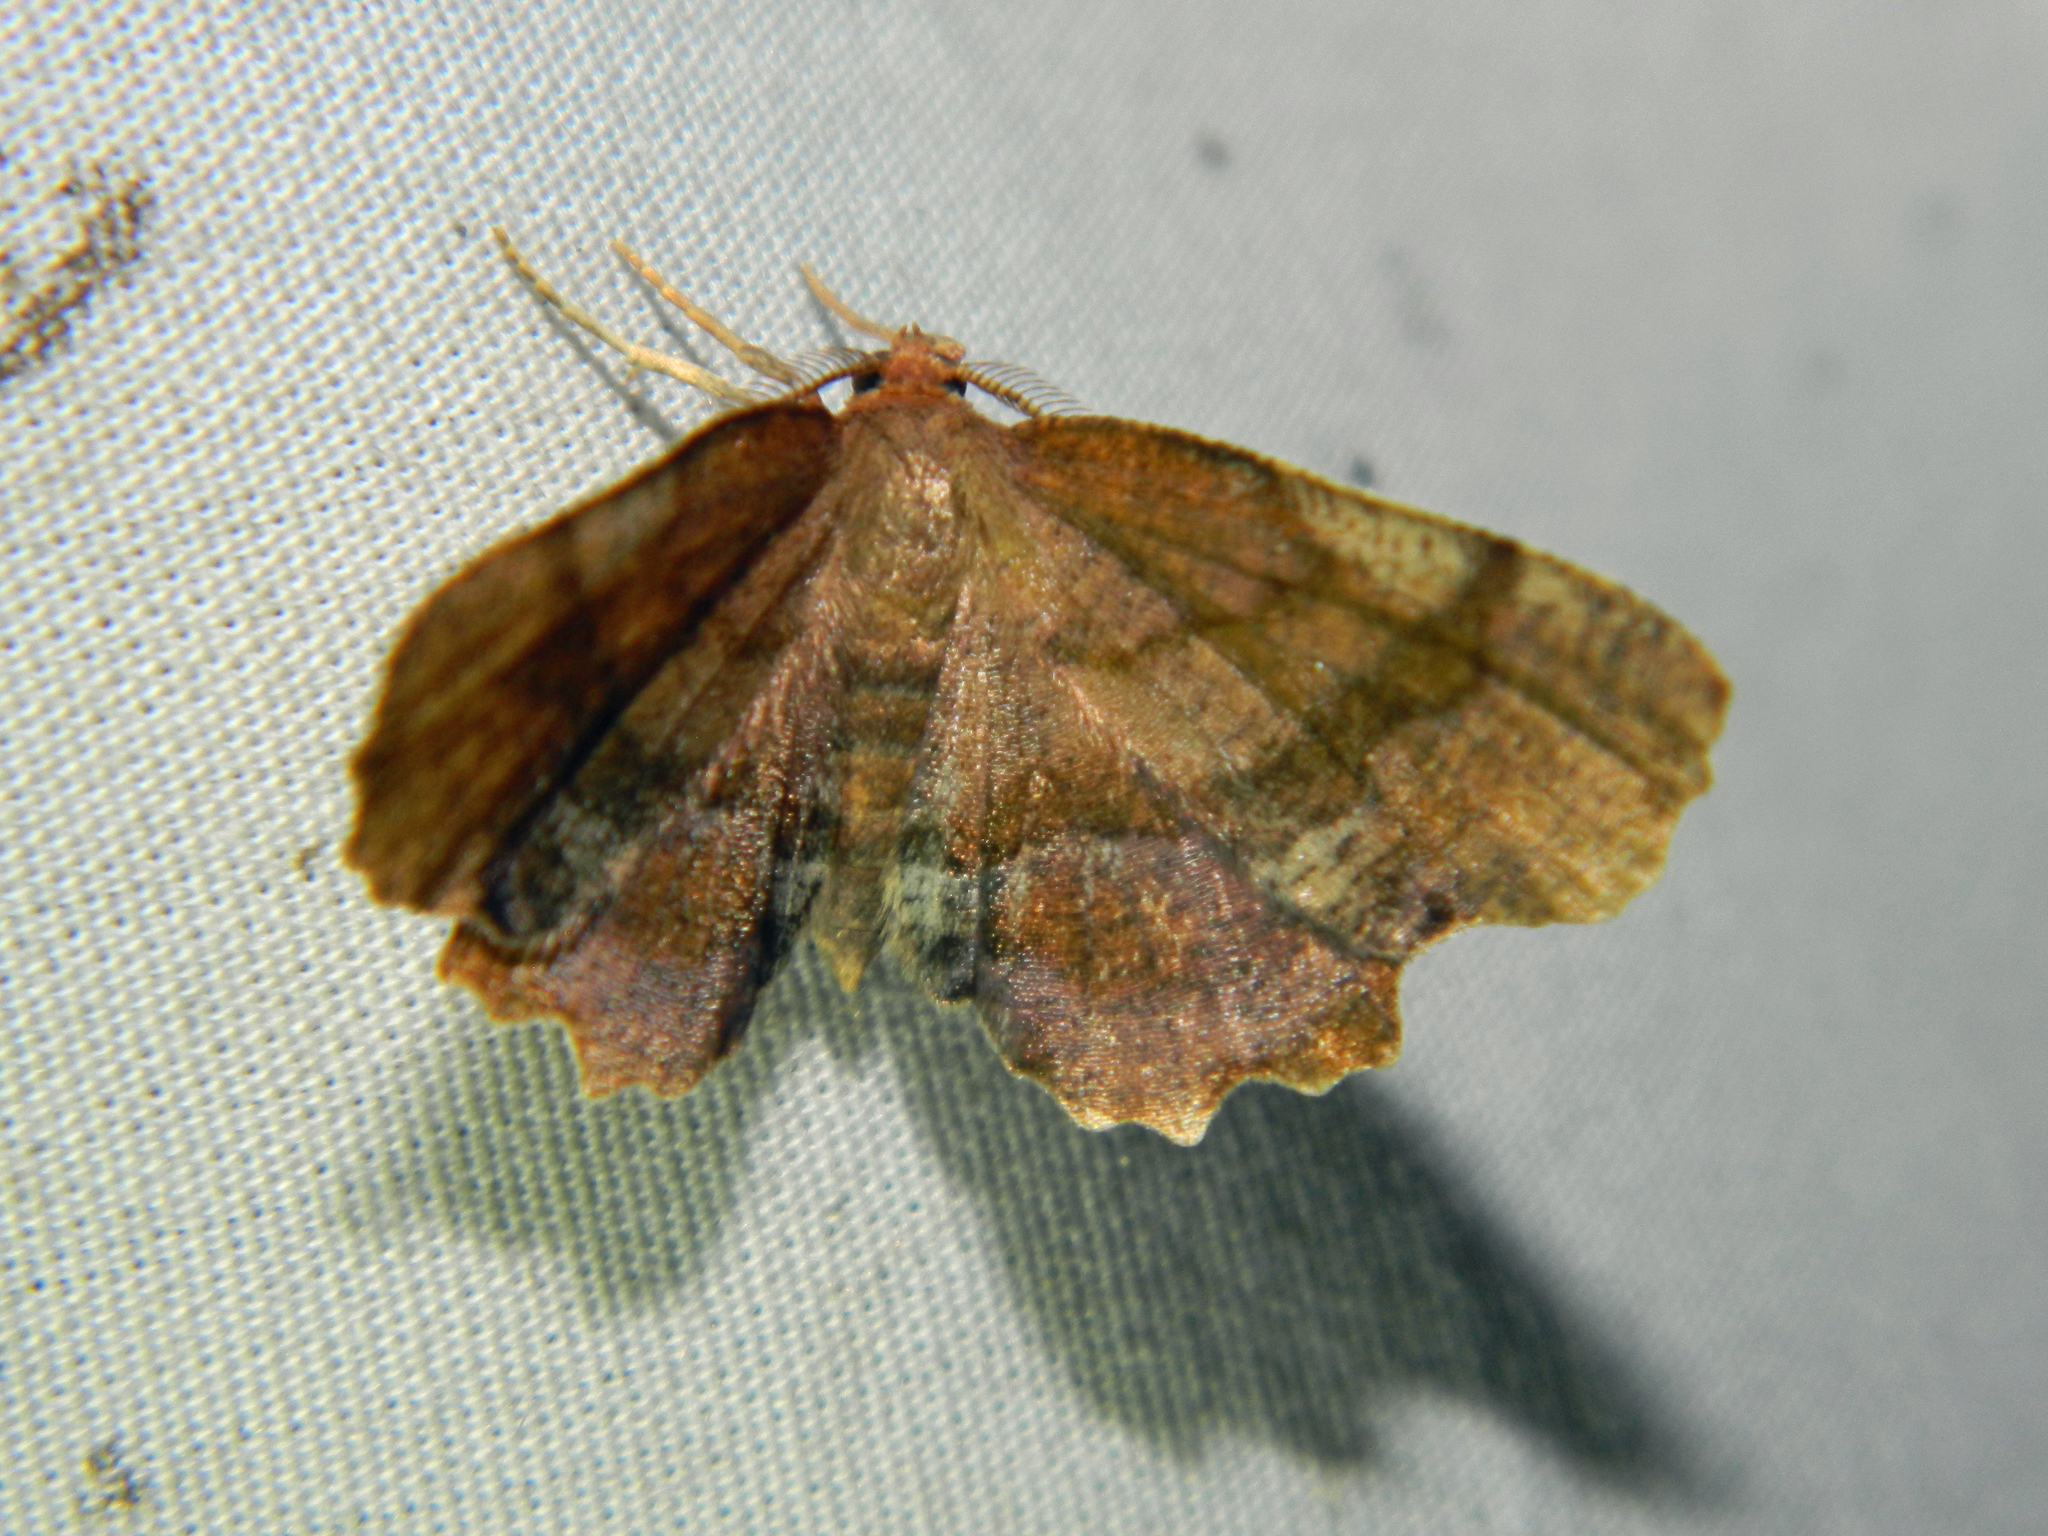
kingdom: Animalia
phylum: Arthropoda
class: Insecta
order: Lepidoptera
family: Geometridae
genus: Cepphis
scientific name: Cepphis armataria
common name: Scallop moth
